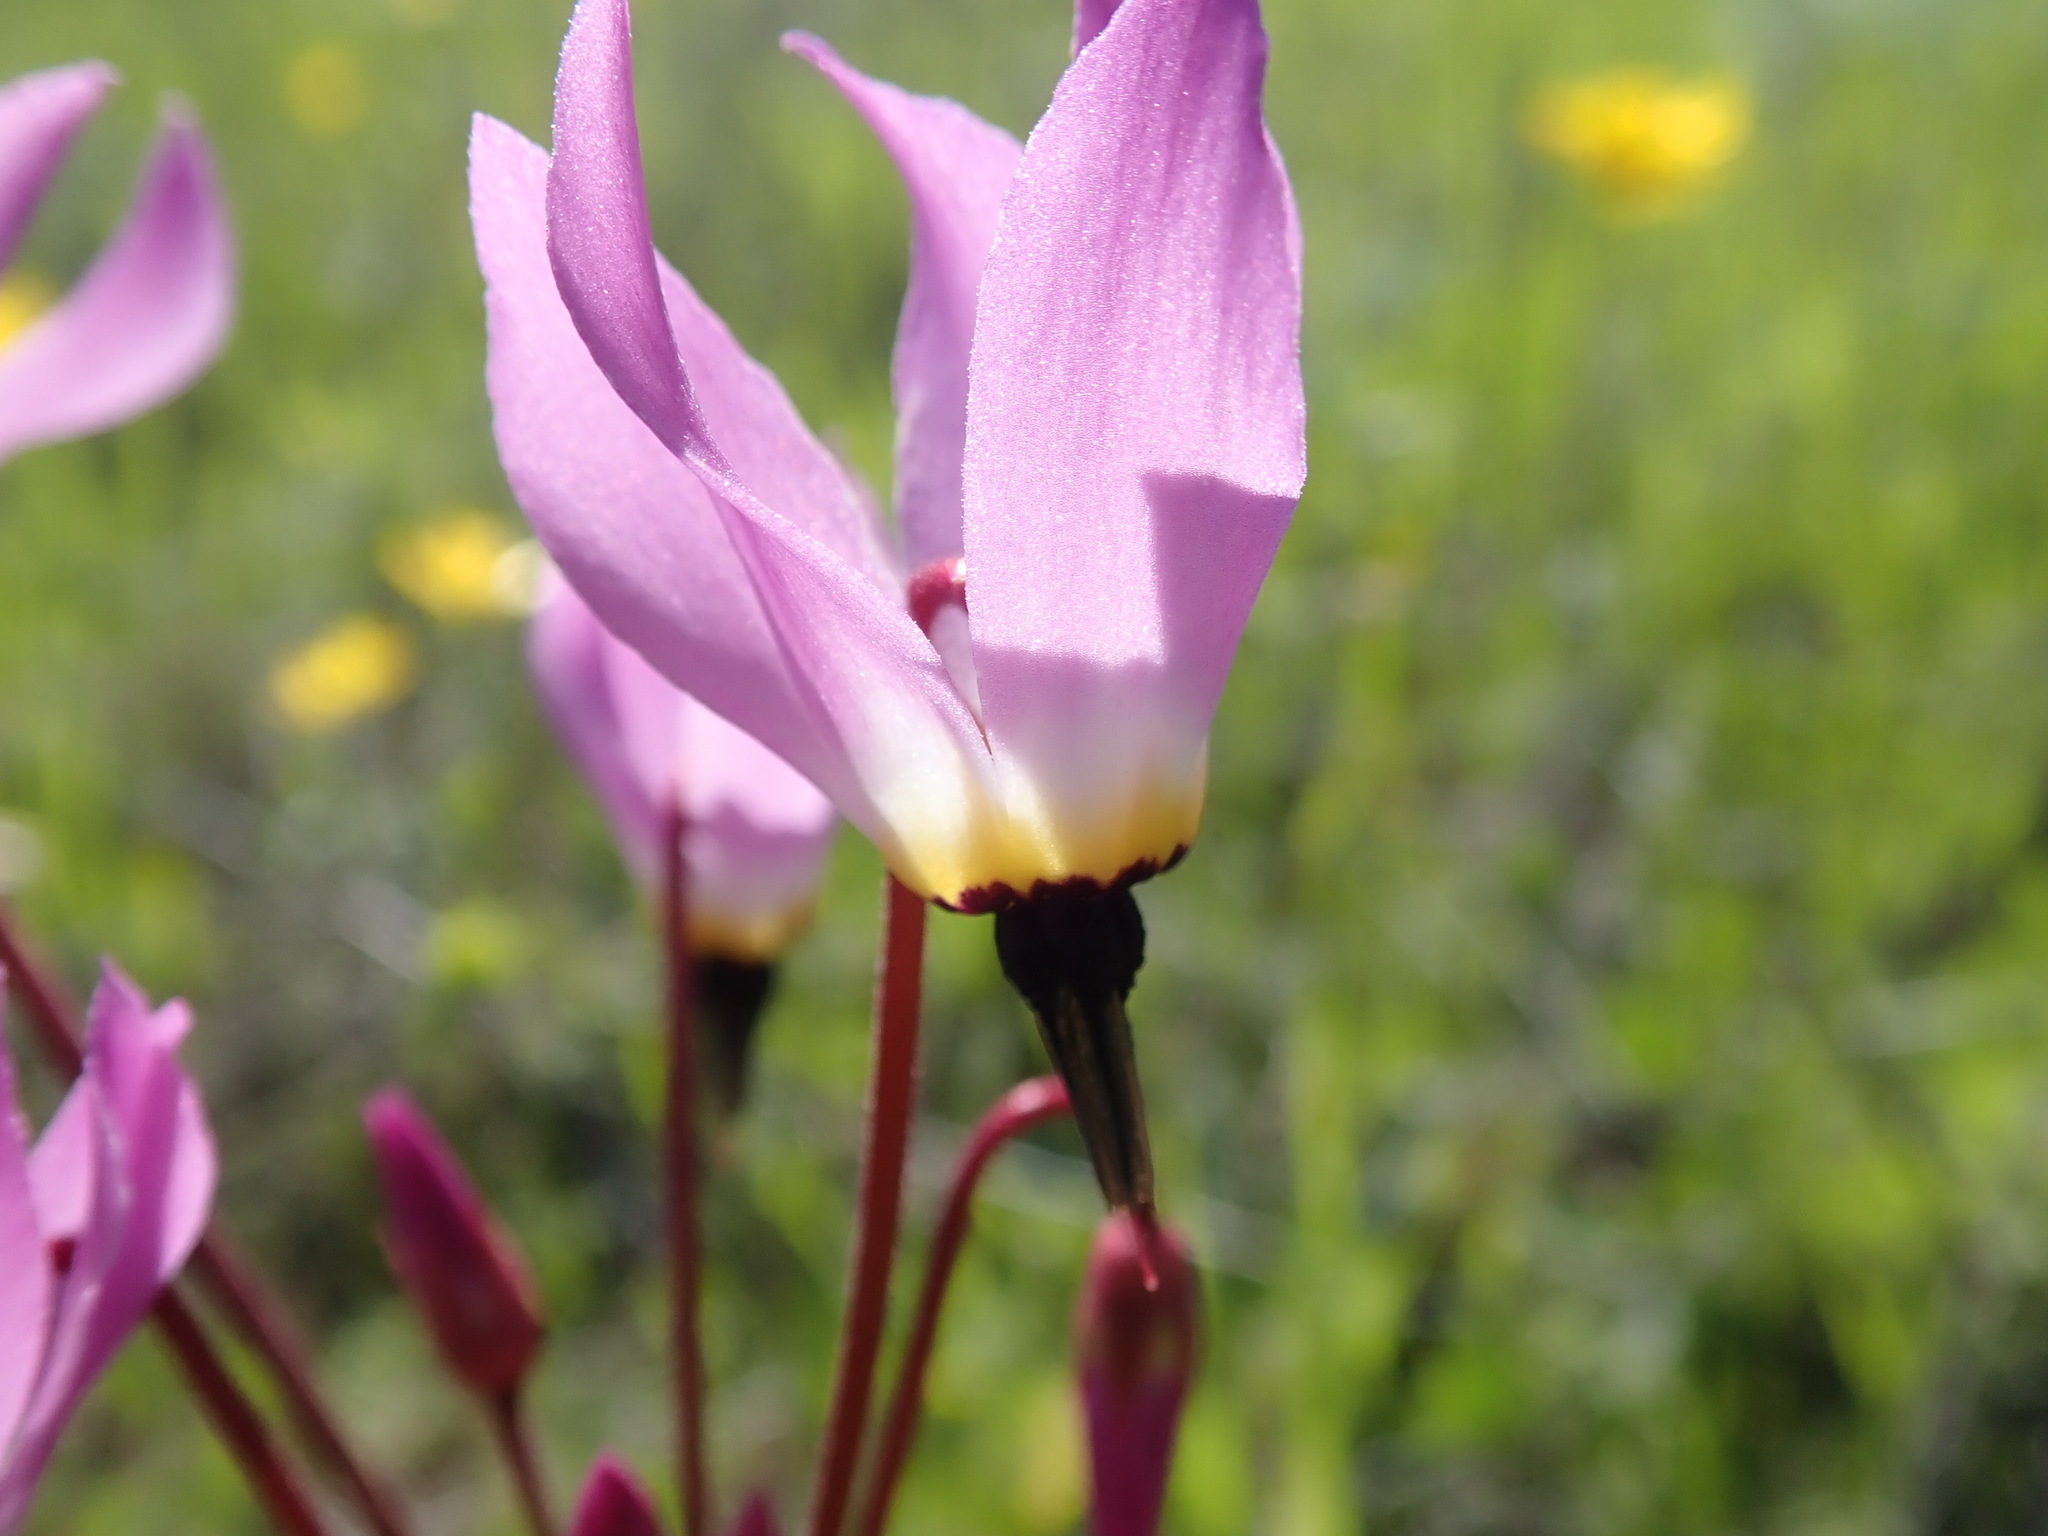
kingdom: Plantae
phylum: Tracheophyta
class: Magnoliopsida
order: Ericales
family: Primulaceae
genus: Dodecatheon
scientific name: Dodecatheon hendersonii
